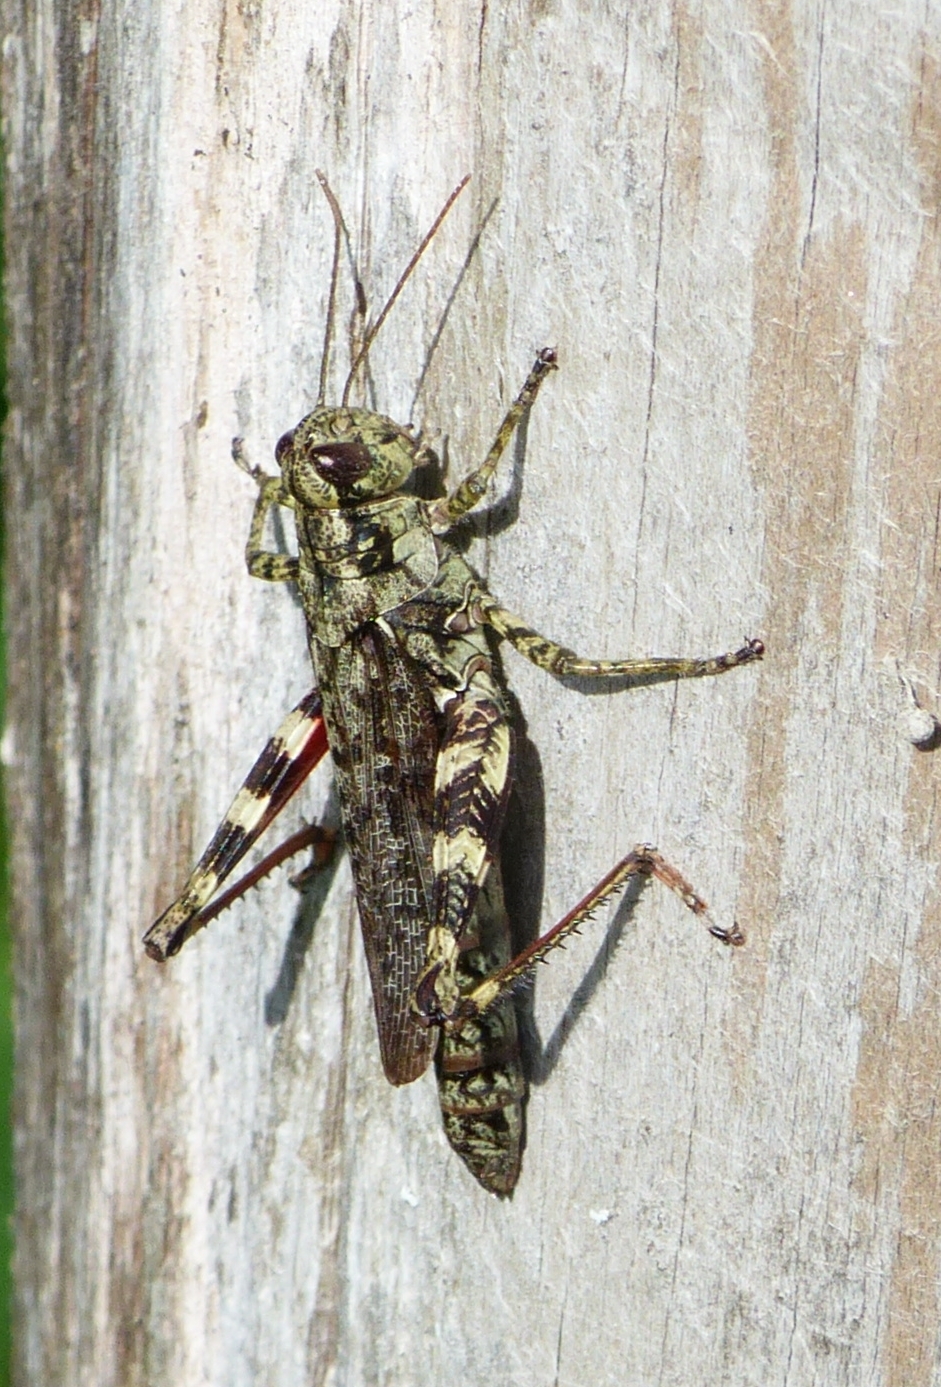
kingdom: Animalia
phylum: Arthropoda
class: Insecta
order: Orthoptera
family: Acrididae
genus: Melanoplus
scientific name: Melanoplus punctulatus
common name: Pine-tree spur-throat grasshopper
